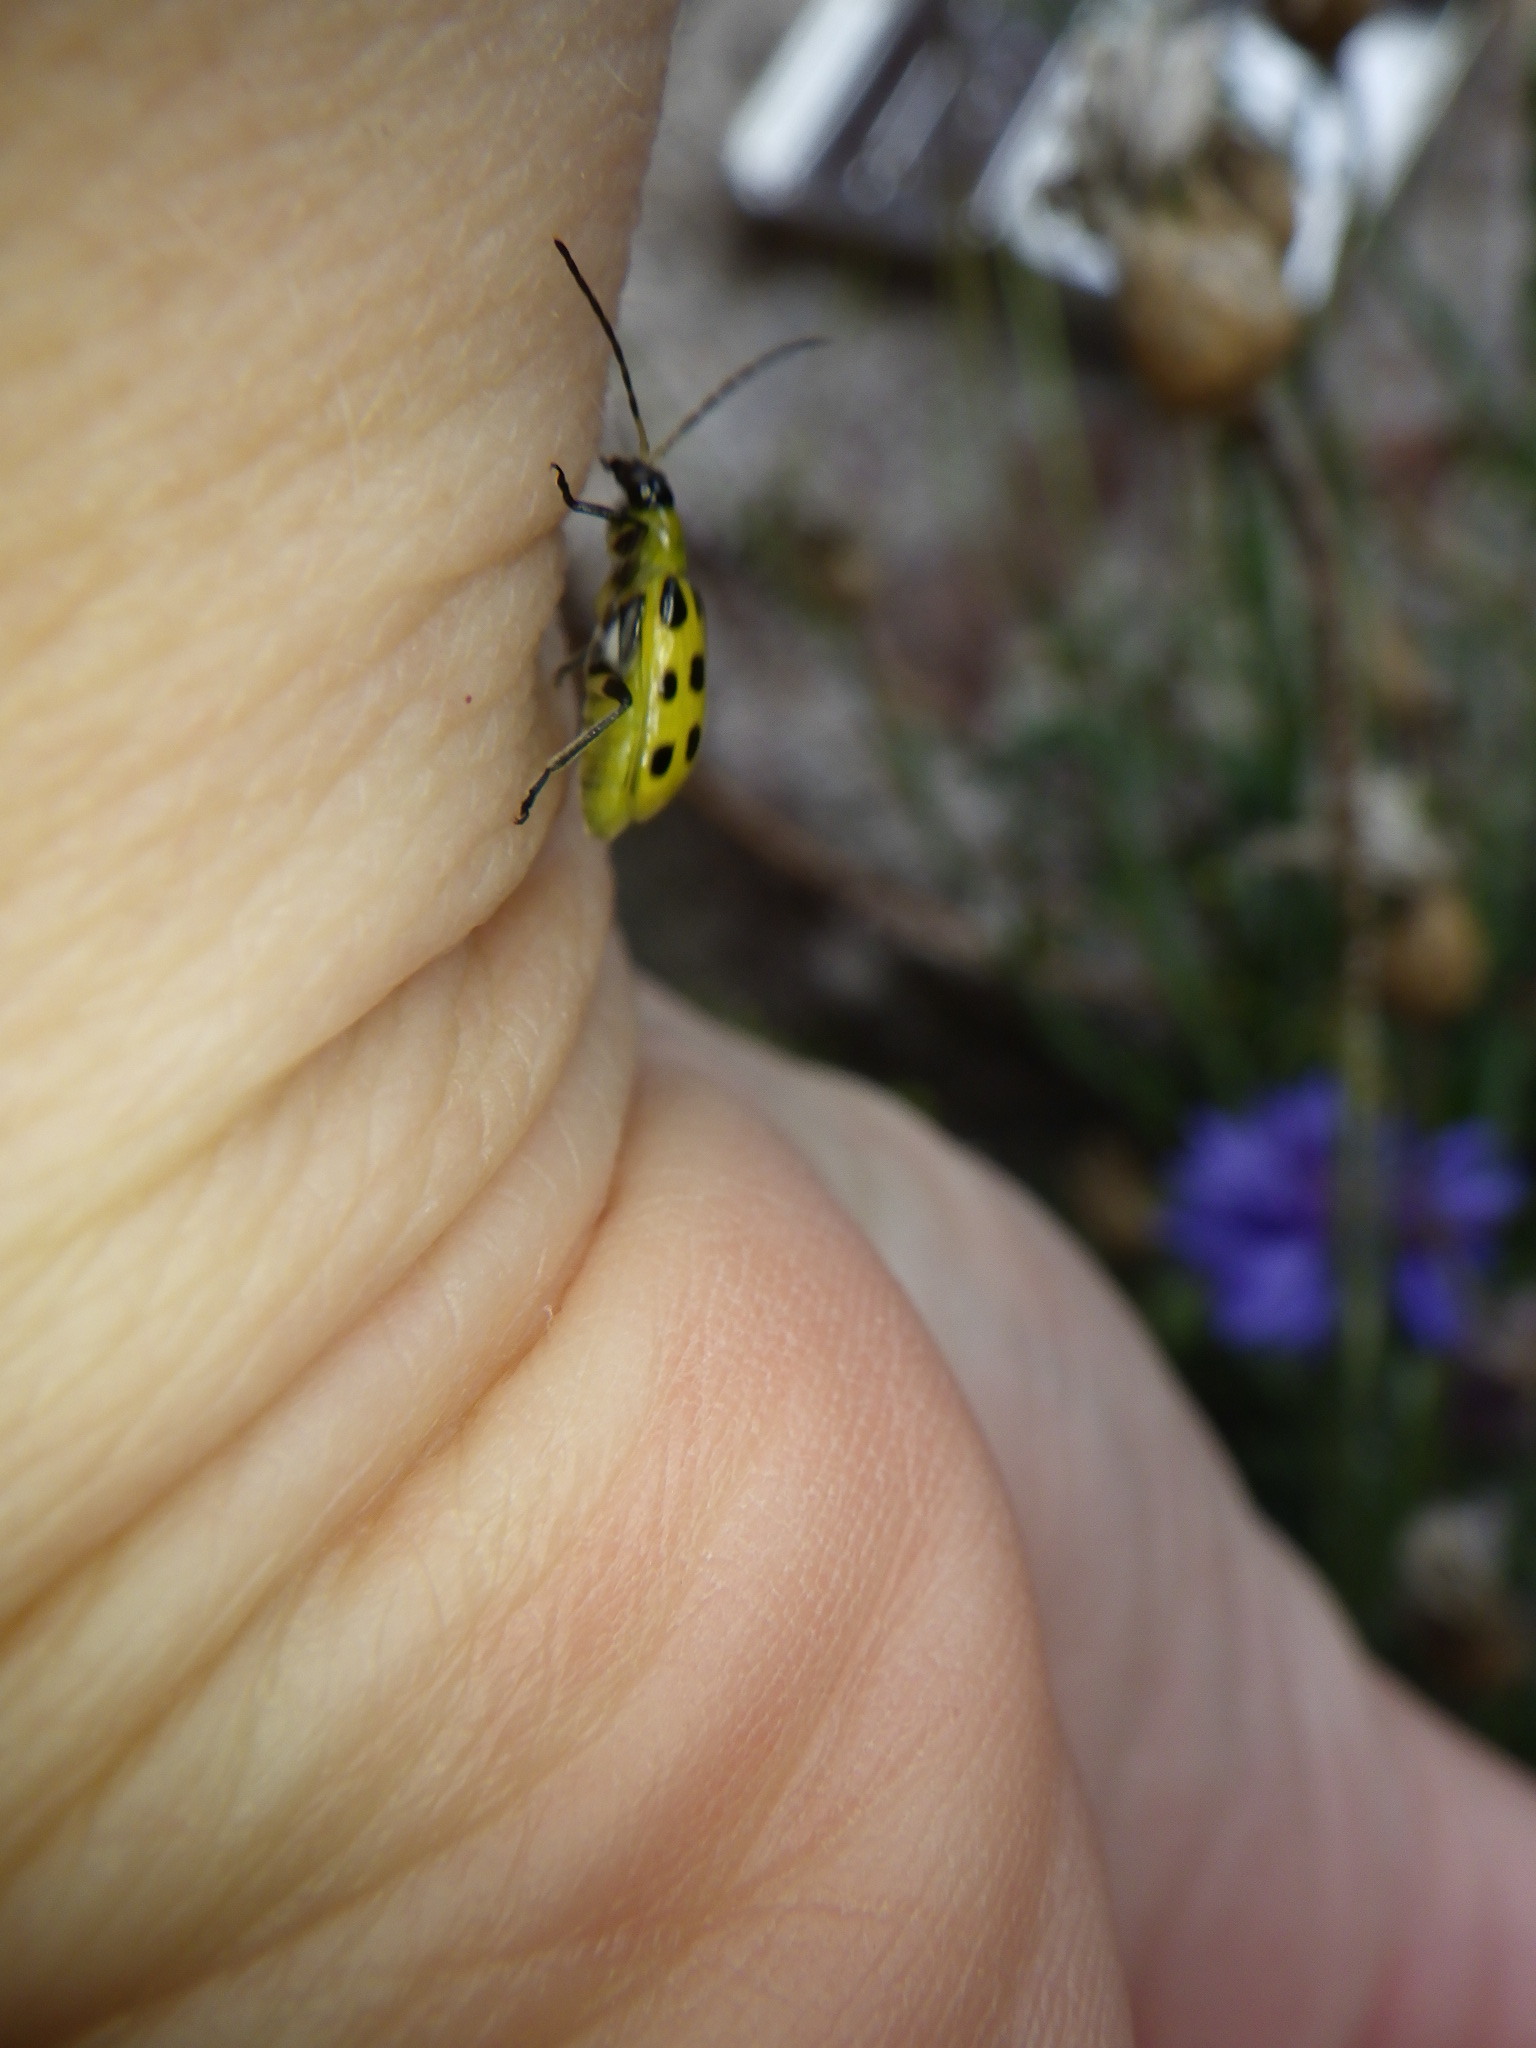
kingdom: Animalia
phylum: Arthropoda
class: Insecta
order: Coleoptera
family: Chrysomelidae
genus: Diabrotica
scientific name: Diabrotica undecimpunctata
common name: Spotted cucumber beetle
